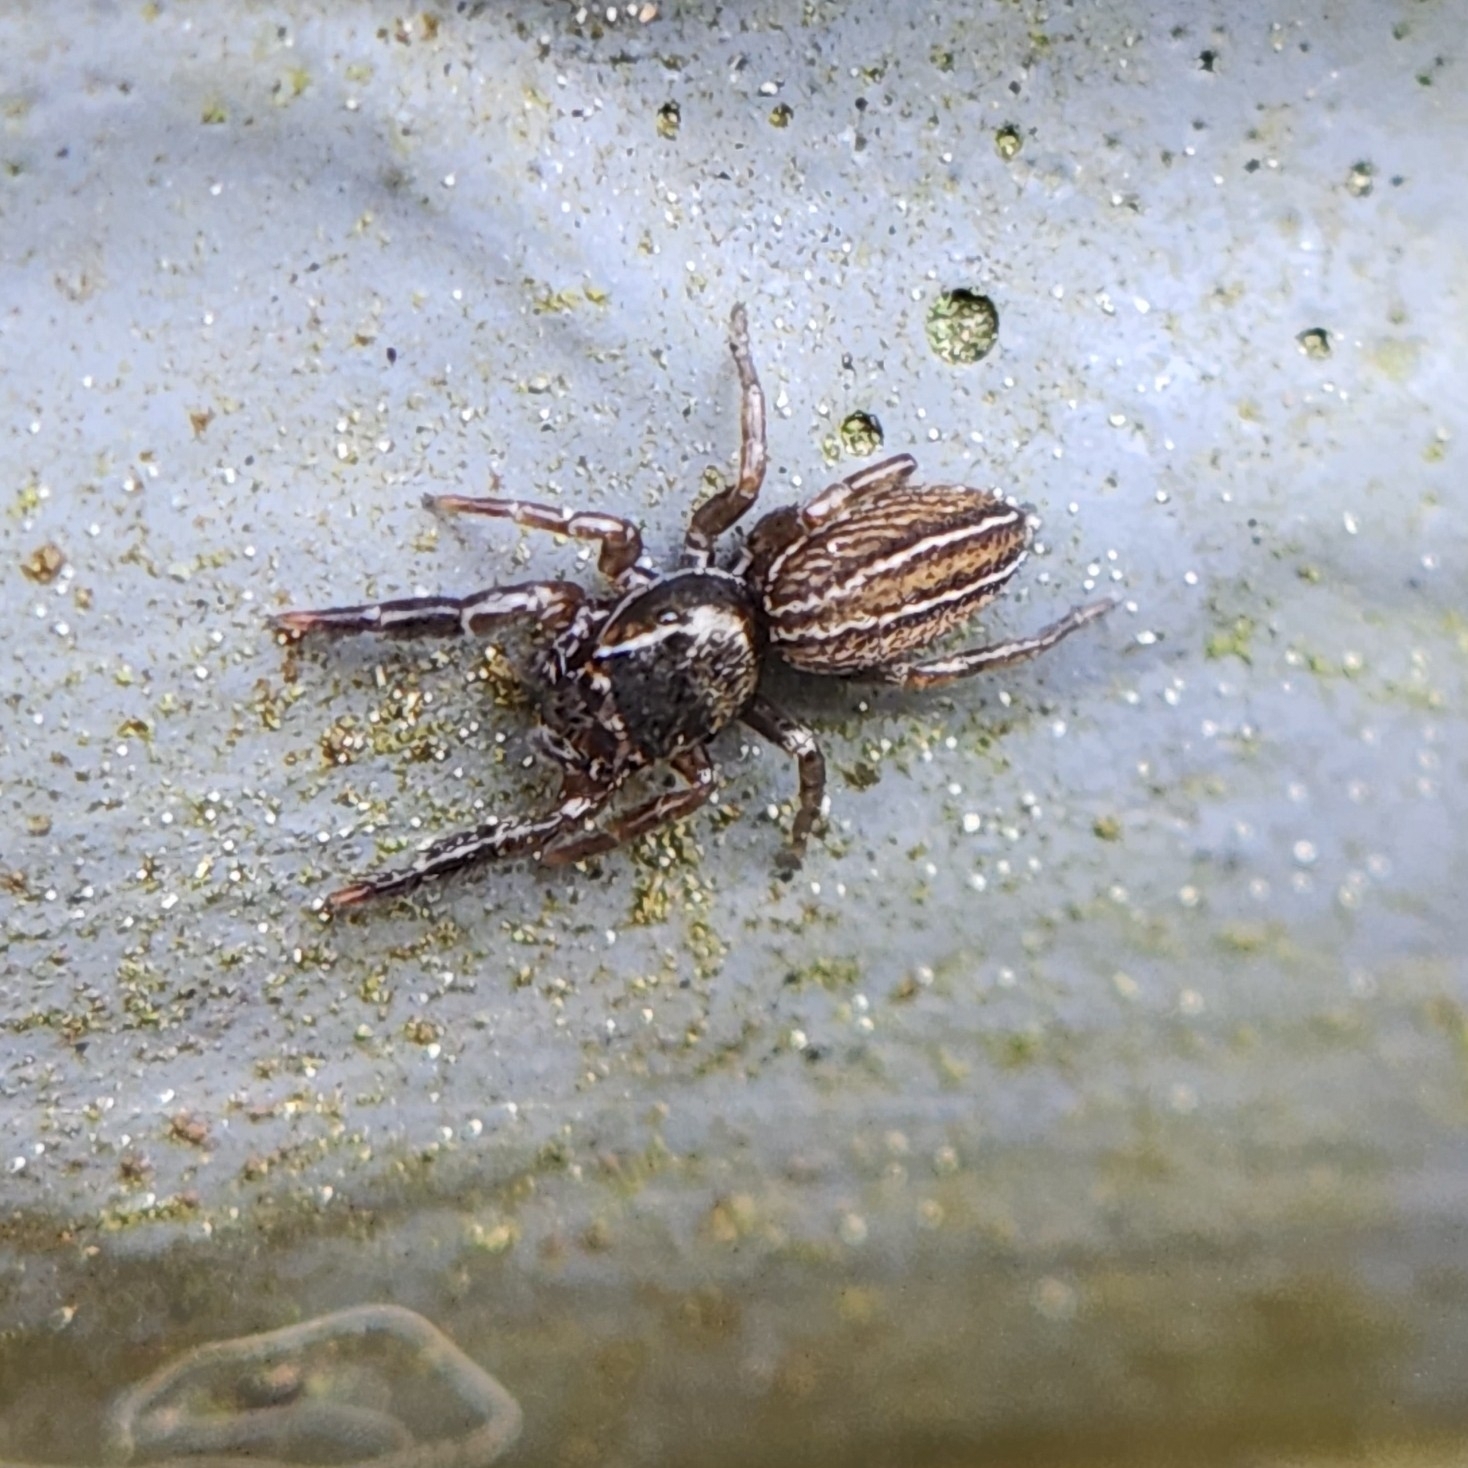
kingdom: Animalia
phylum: Arthropoda
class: Arachnida
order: Araneae
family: Salticidae
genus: Marpissa
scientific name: Marpissa lineata
